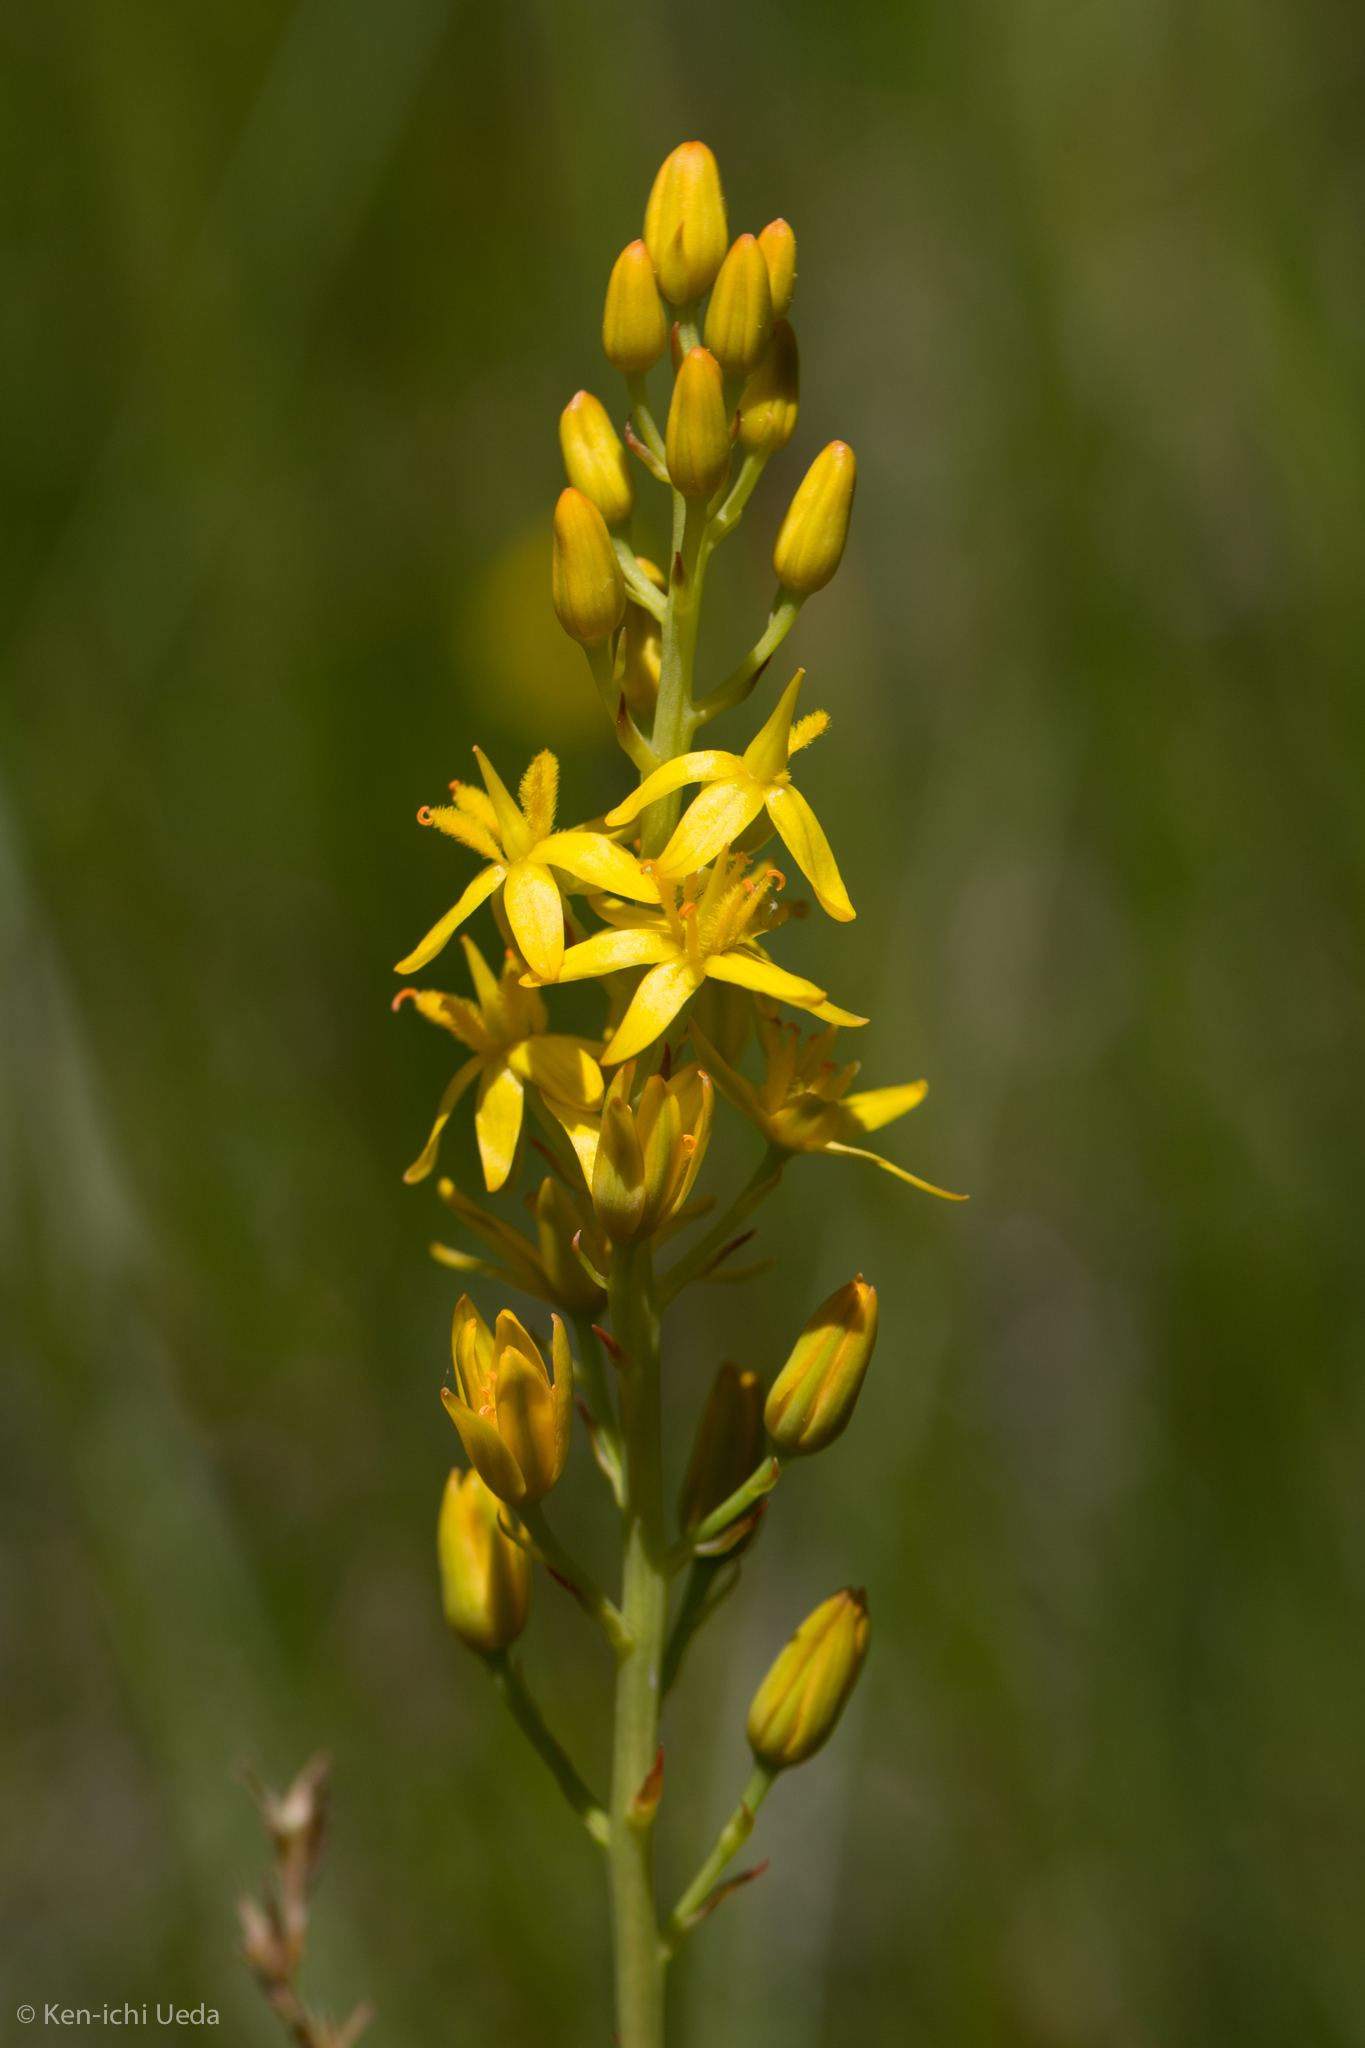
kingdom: Plantae
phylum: Tracheophyta
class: Liliopsida
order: Dioscoreales
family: Nartheciaceae
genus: Narthecium
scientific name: Narthecium californicum
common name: California bog-asphodel
